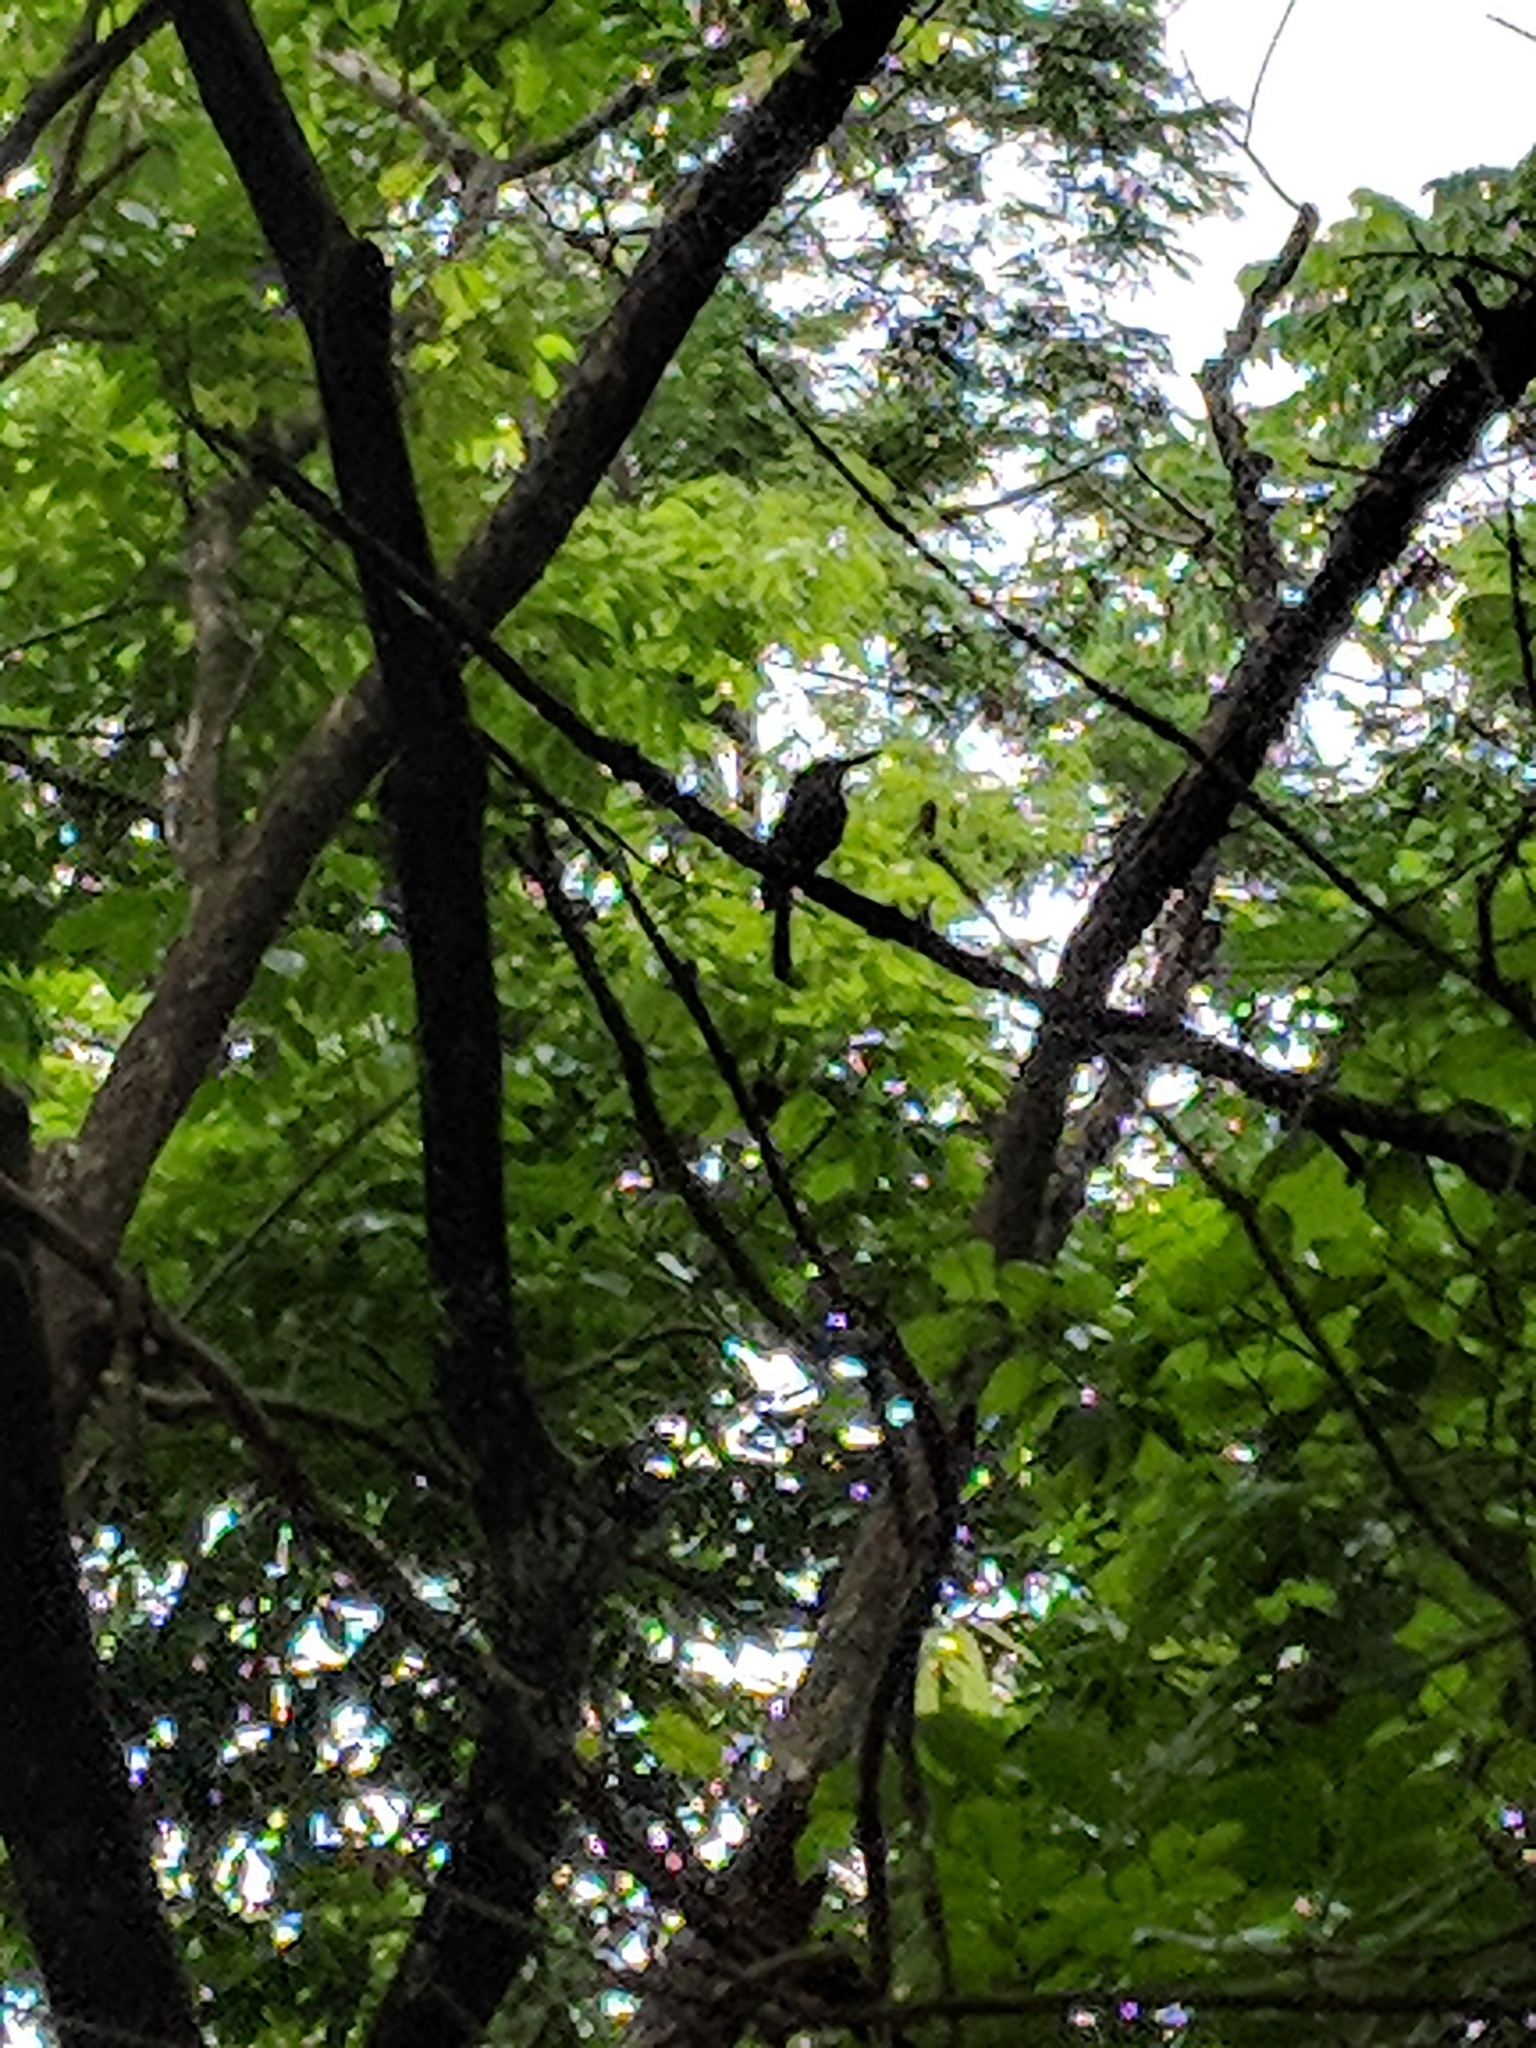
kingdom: Animalia
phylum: Chordata
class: Aves
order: Coraciiformes
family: Momotidae
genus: Eumomota
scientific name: Eumomota superciliosa
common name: Turquoise-browed motmot
